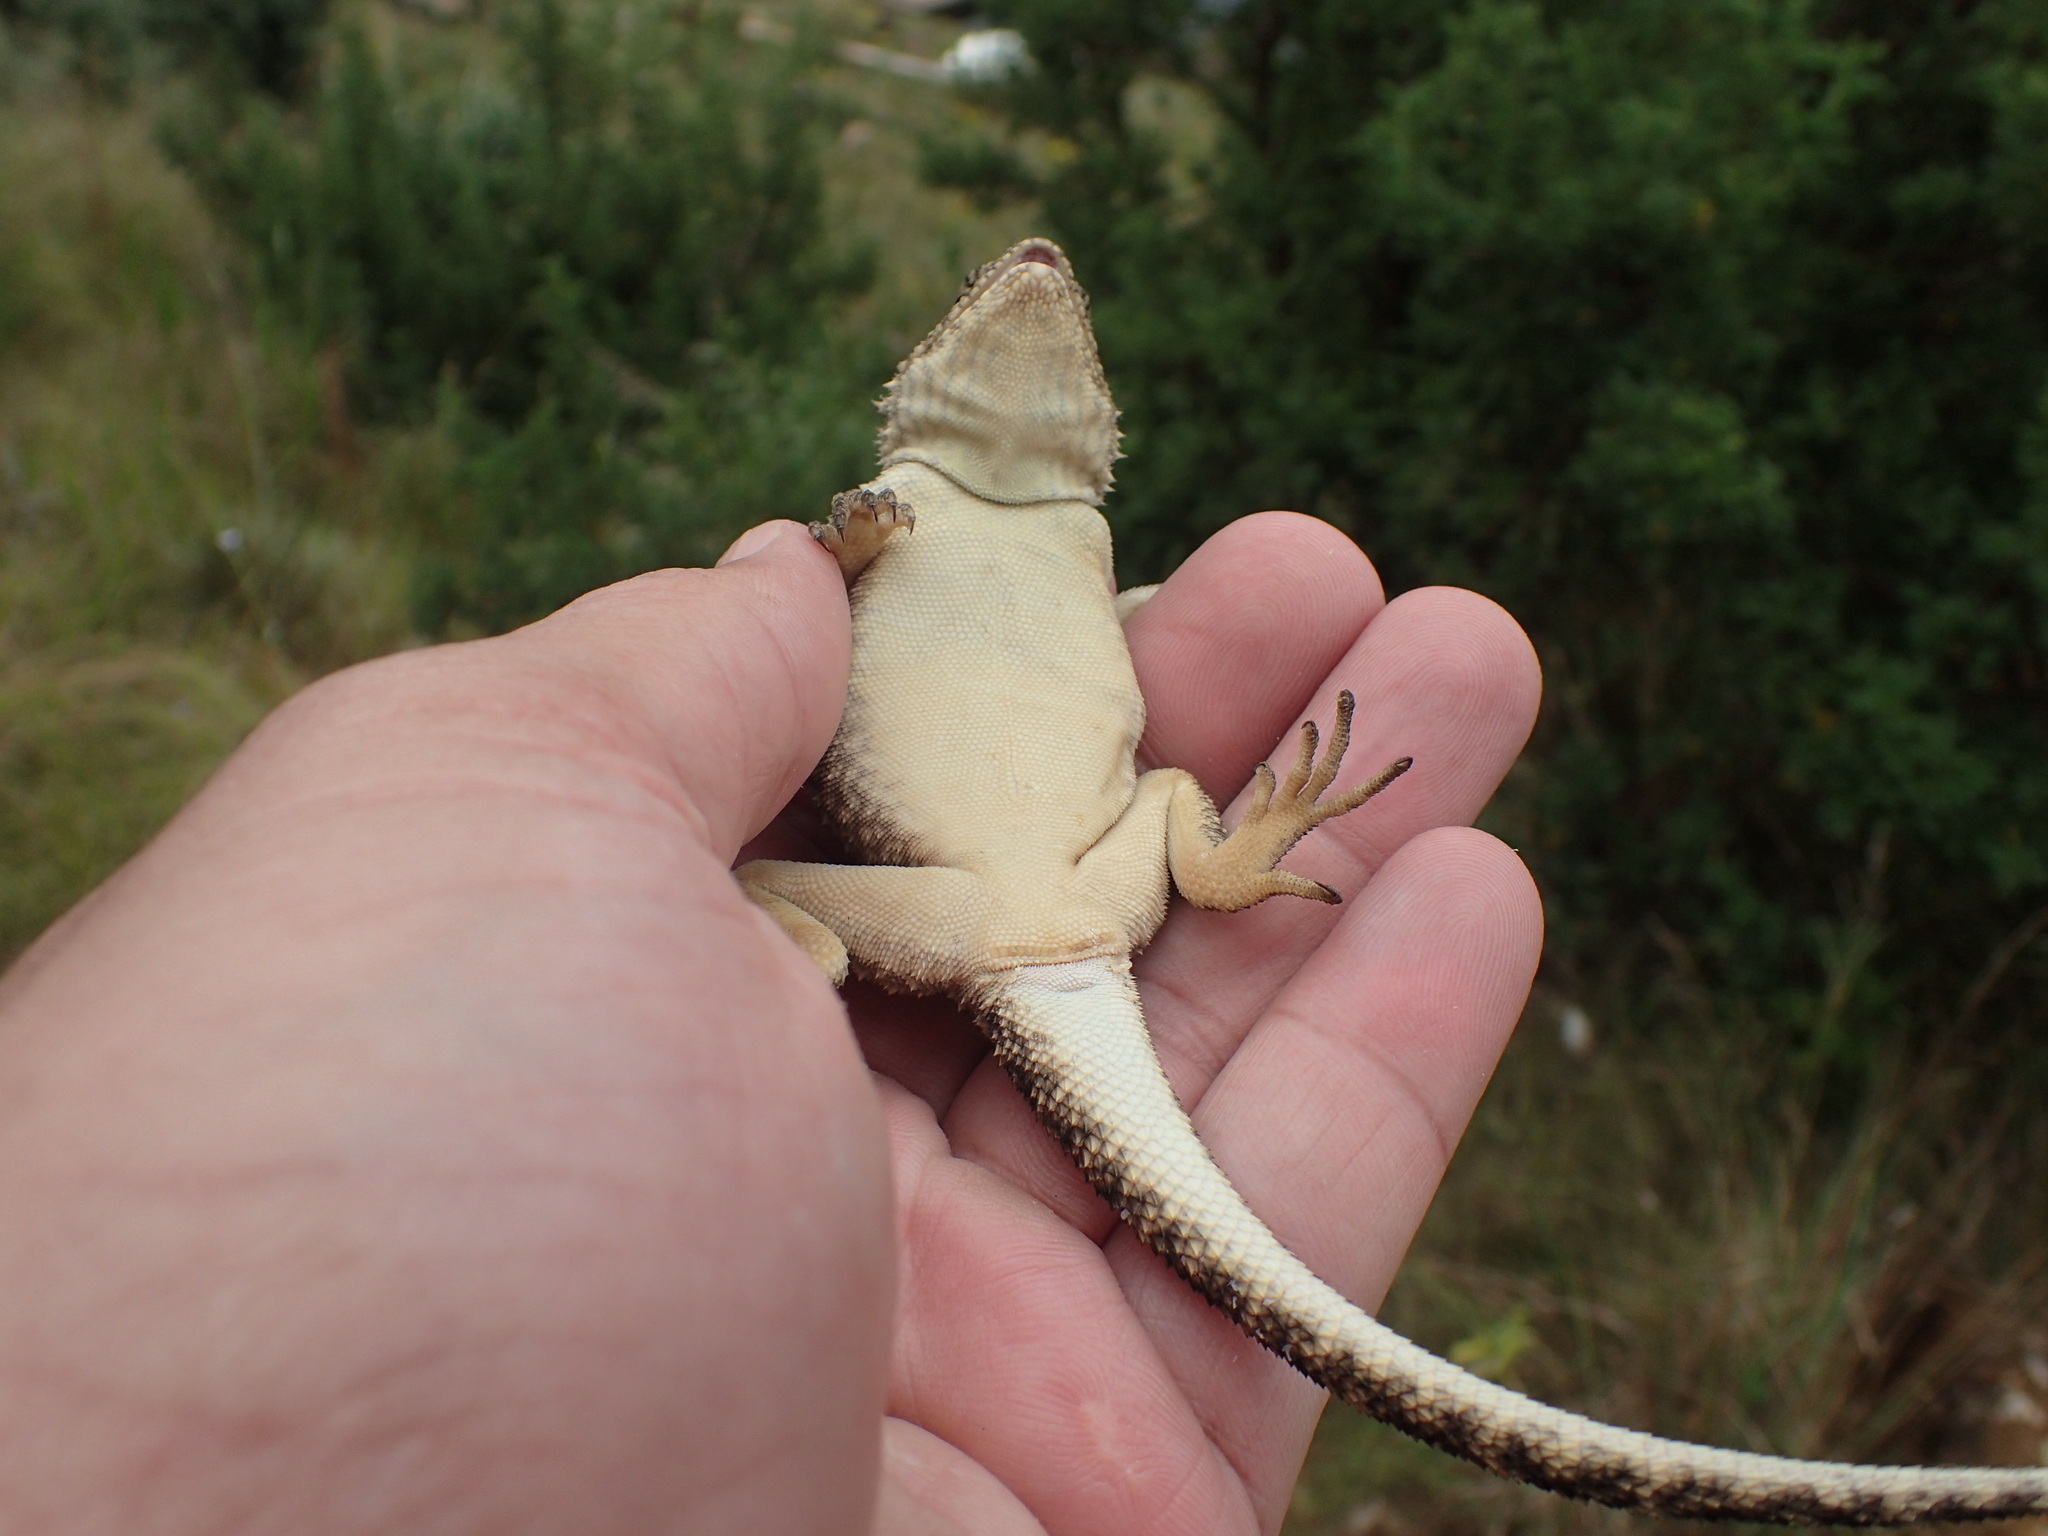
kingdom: Animalia
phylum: Chordata
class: Squamata
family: Agamidae
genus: Agama
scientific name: Agama atra
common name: Southern african rock agama
